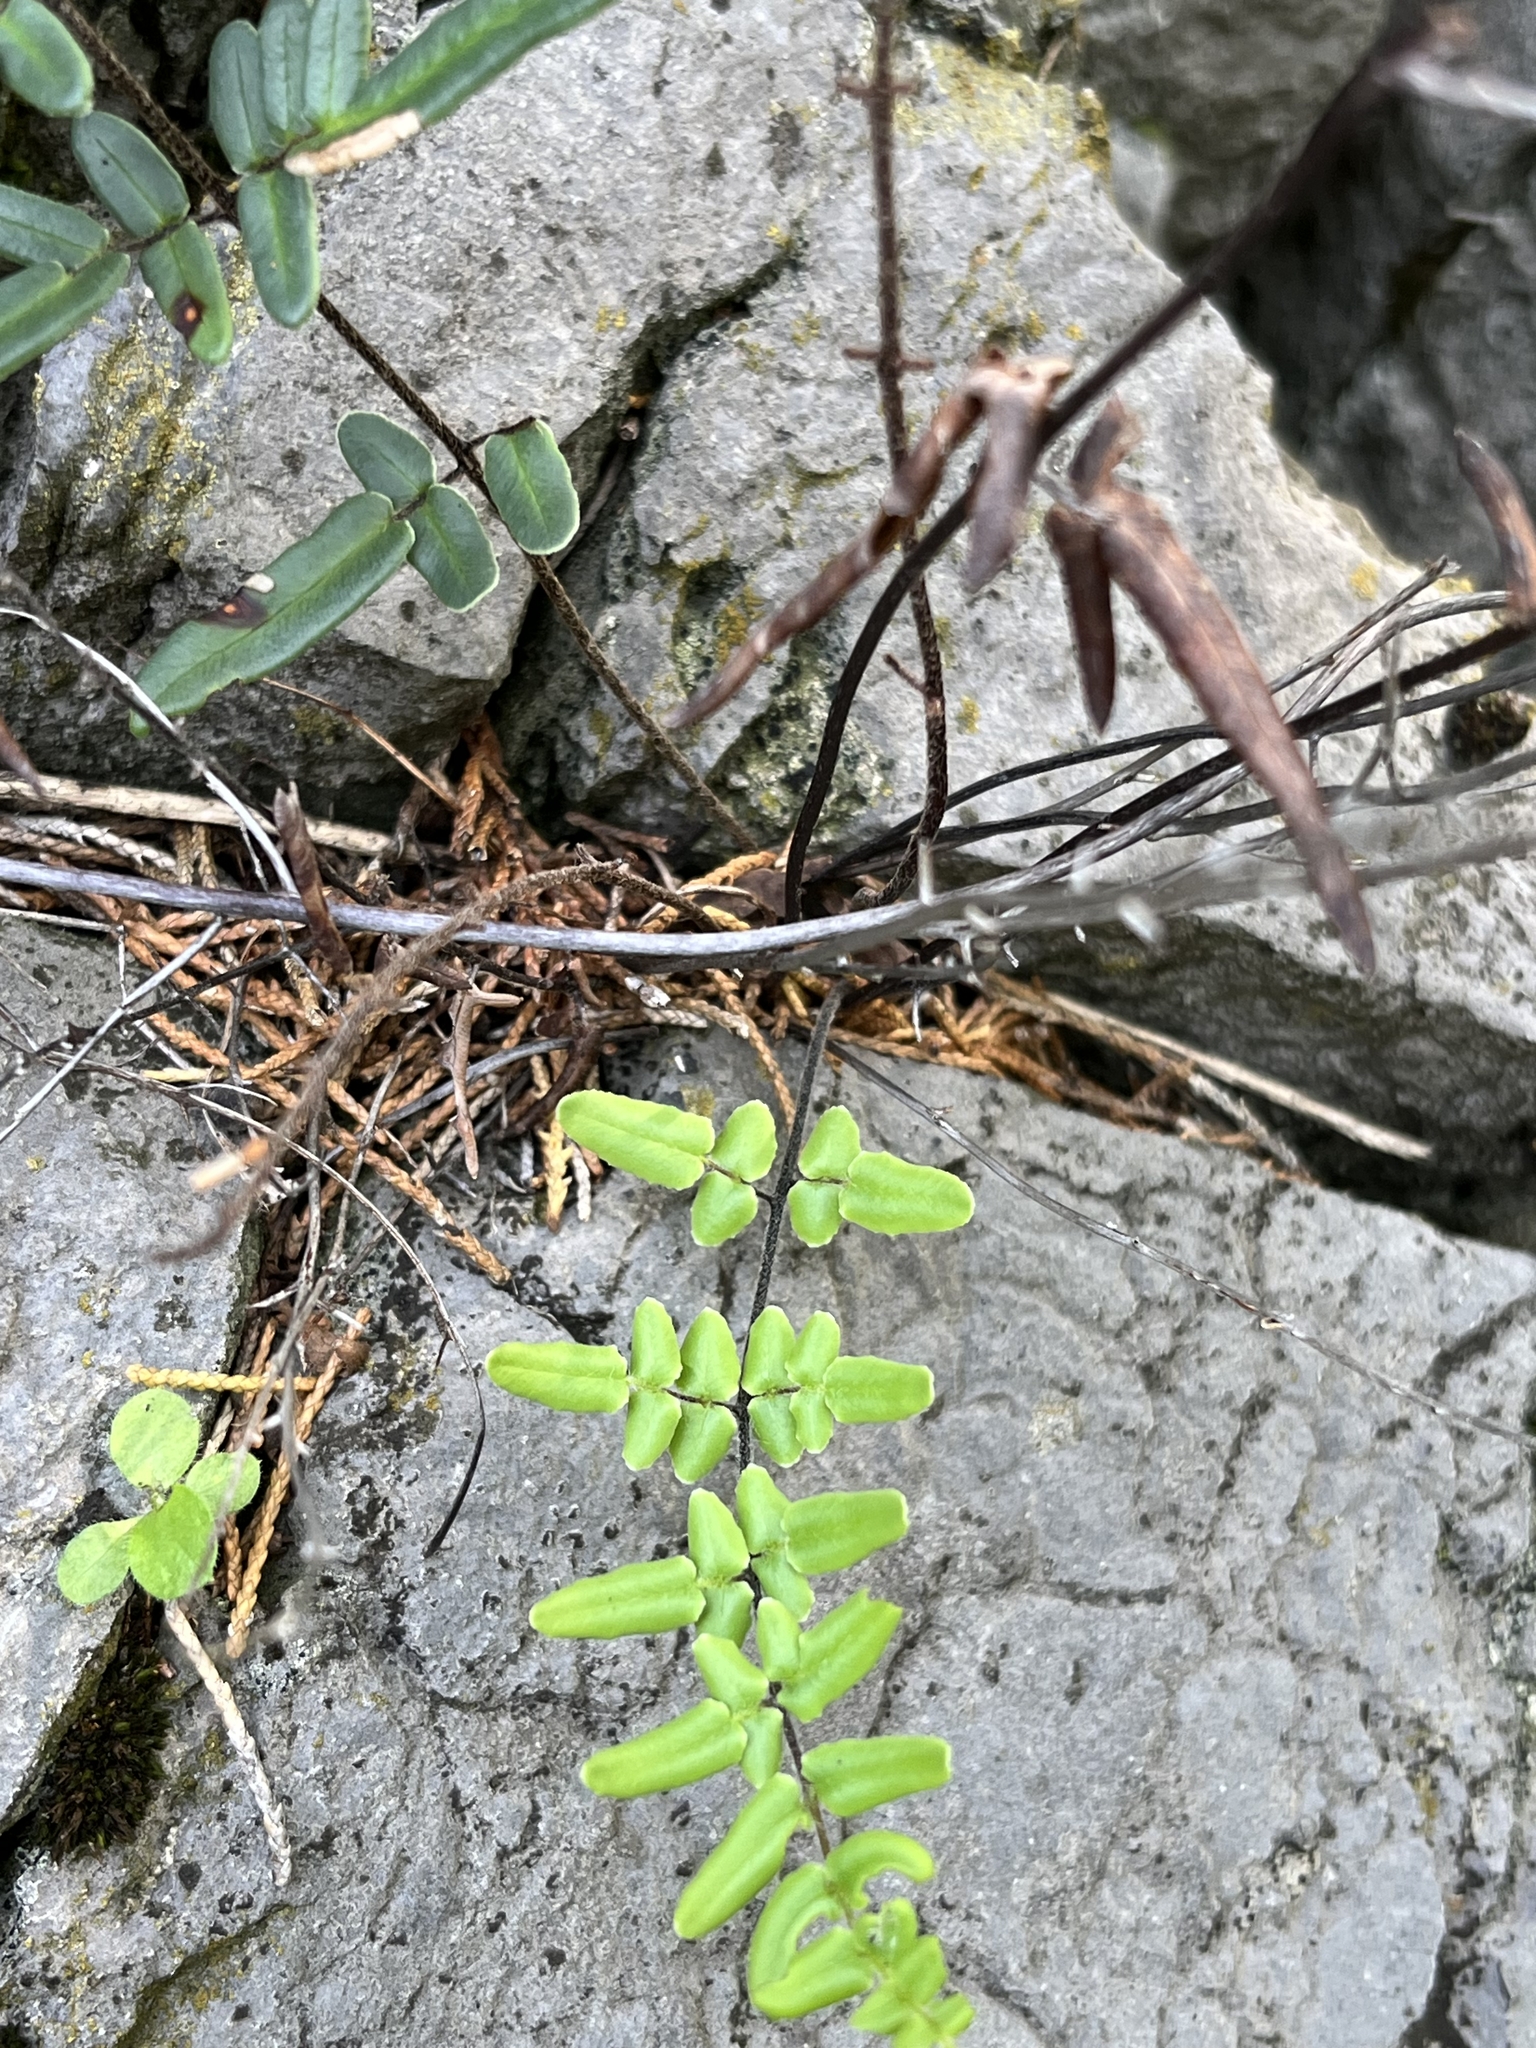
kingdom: Plantae
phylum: Tracheophyta
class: Polypodiopsida
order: Polypodiales
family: Pteridaceae
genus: Pellaea
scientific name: Pellaea atropurpurea
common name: Hairy cliffbrake
